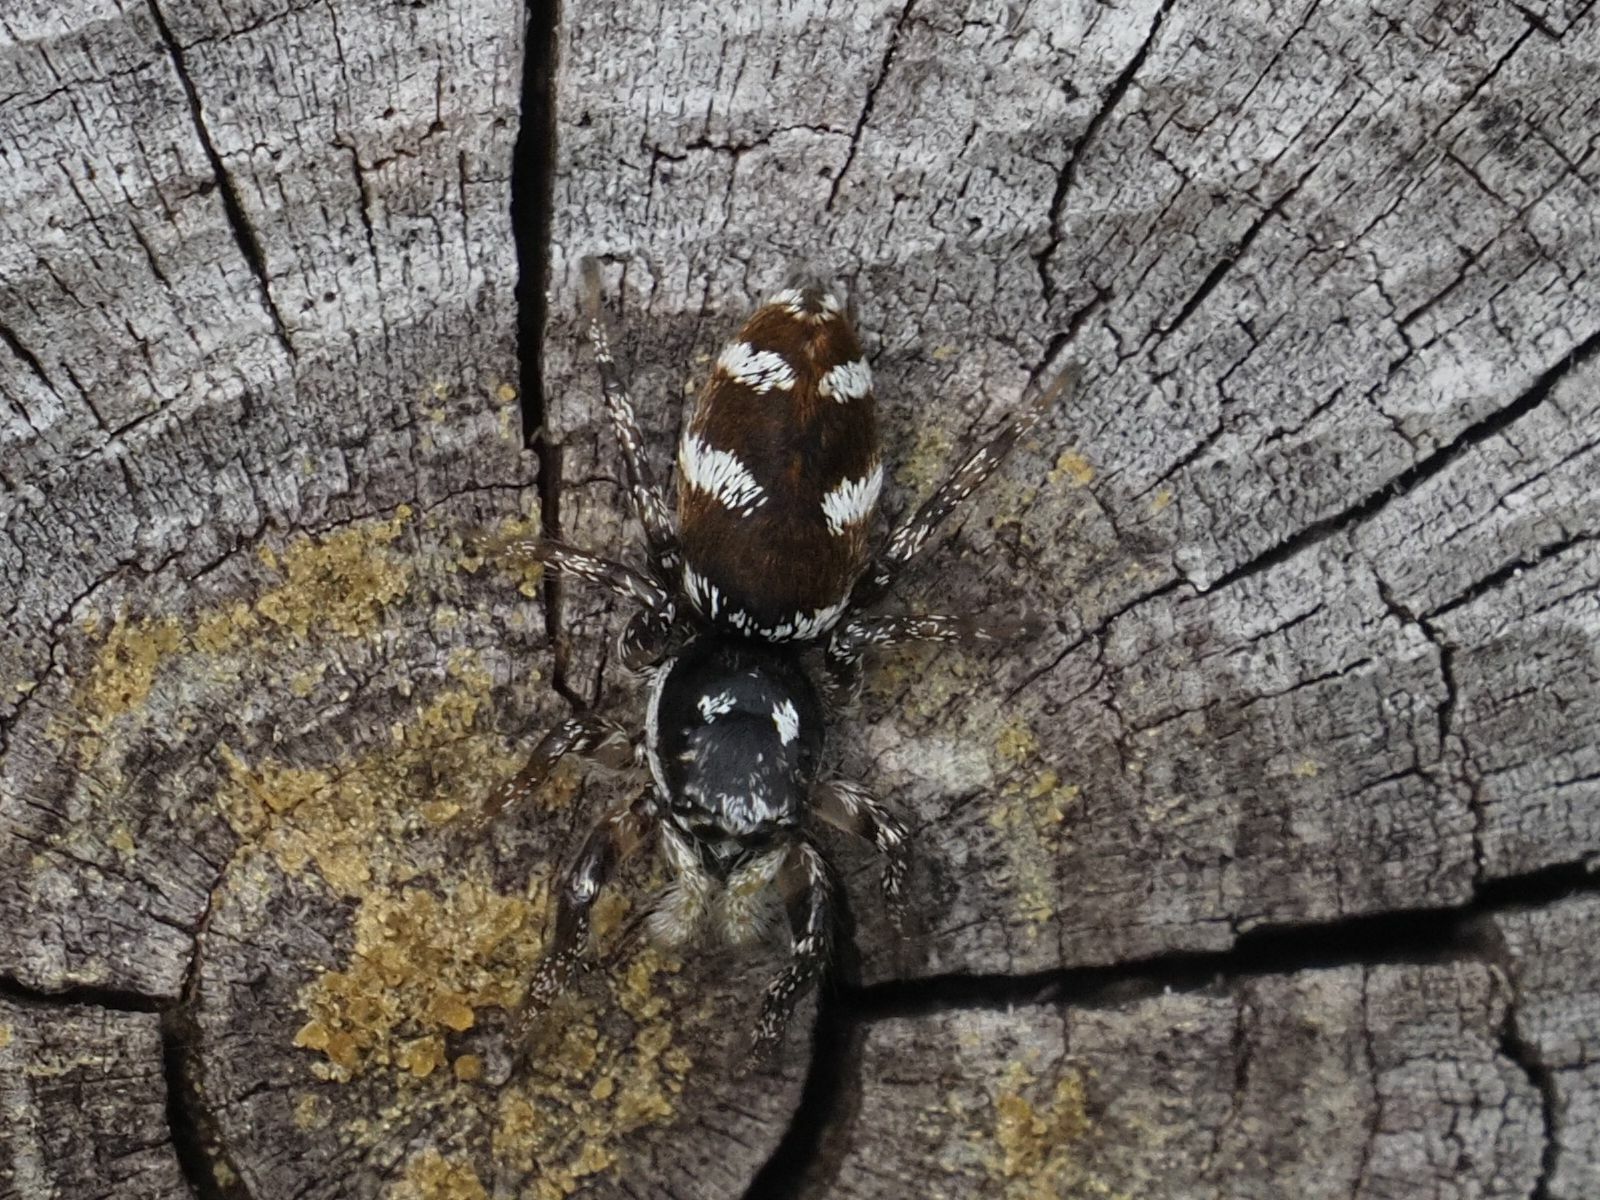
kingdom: Animalia
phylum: Arthropoda
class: Arachnida
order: Araneae
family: Salticidae
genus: Salticus
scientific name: Salticus scenicus
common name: Zebra jumper
